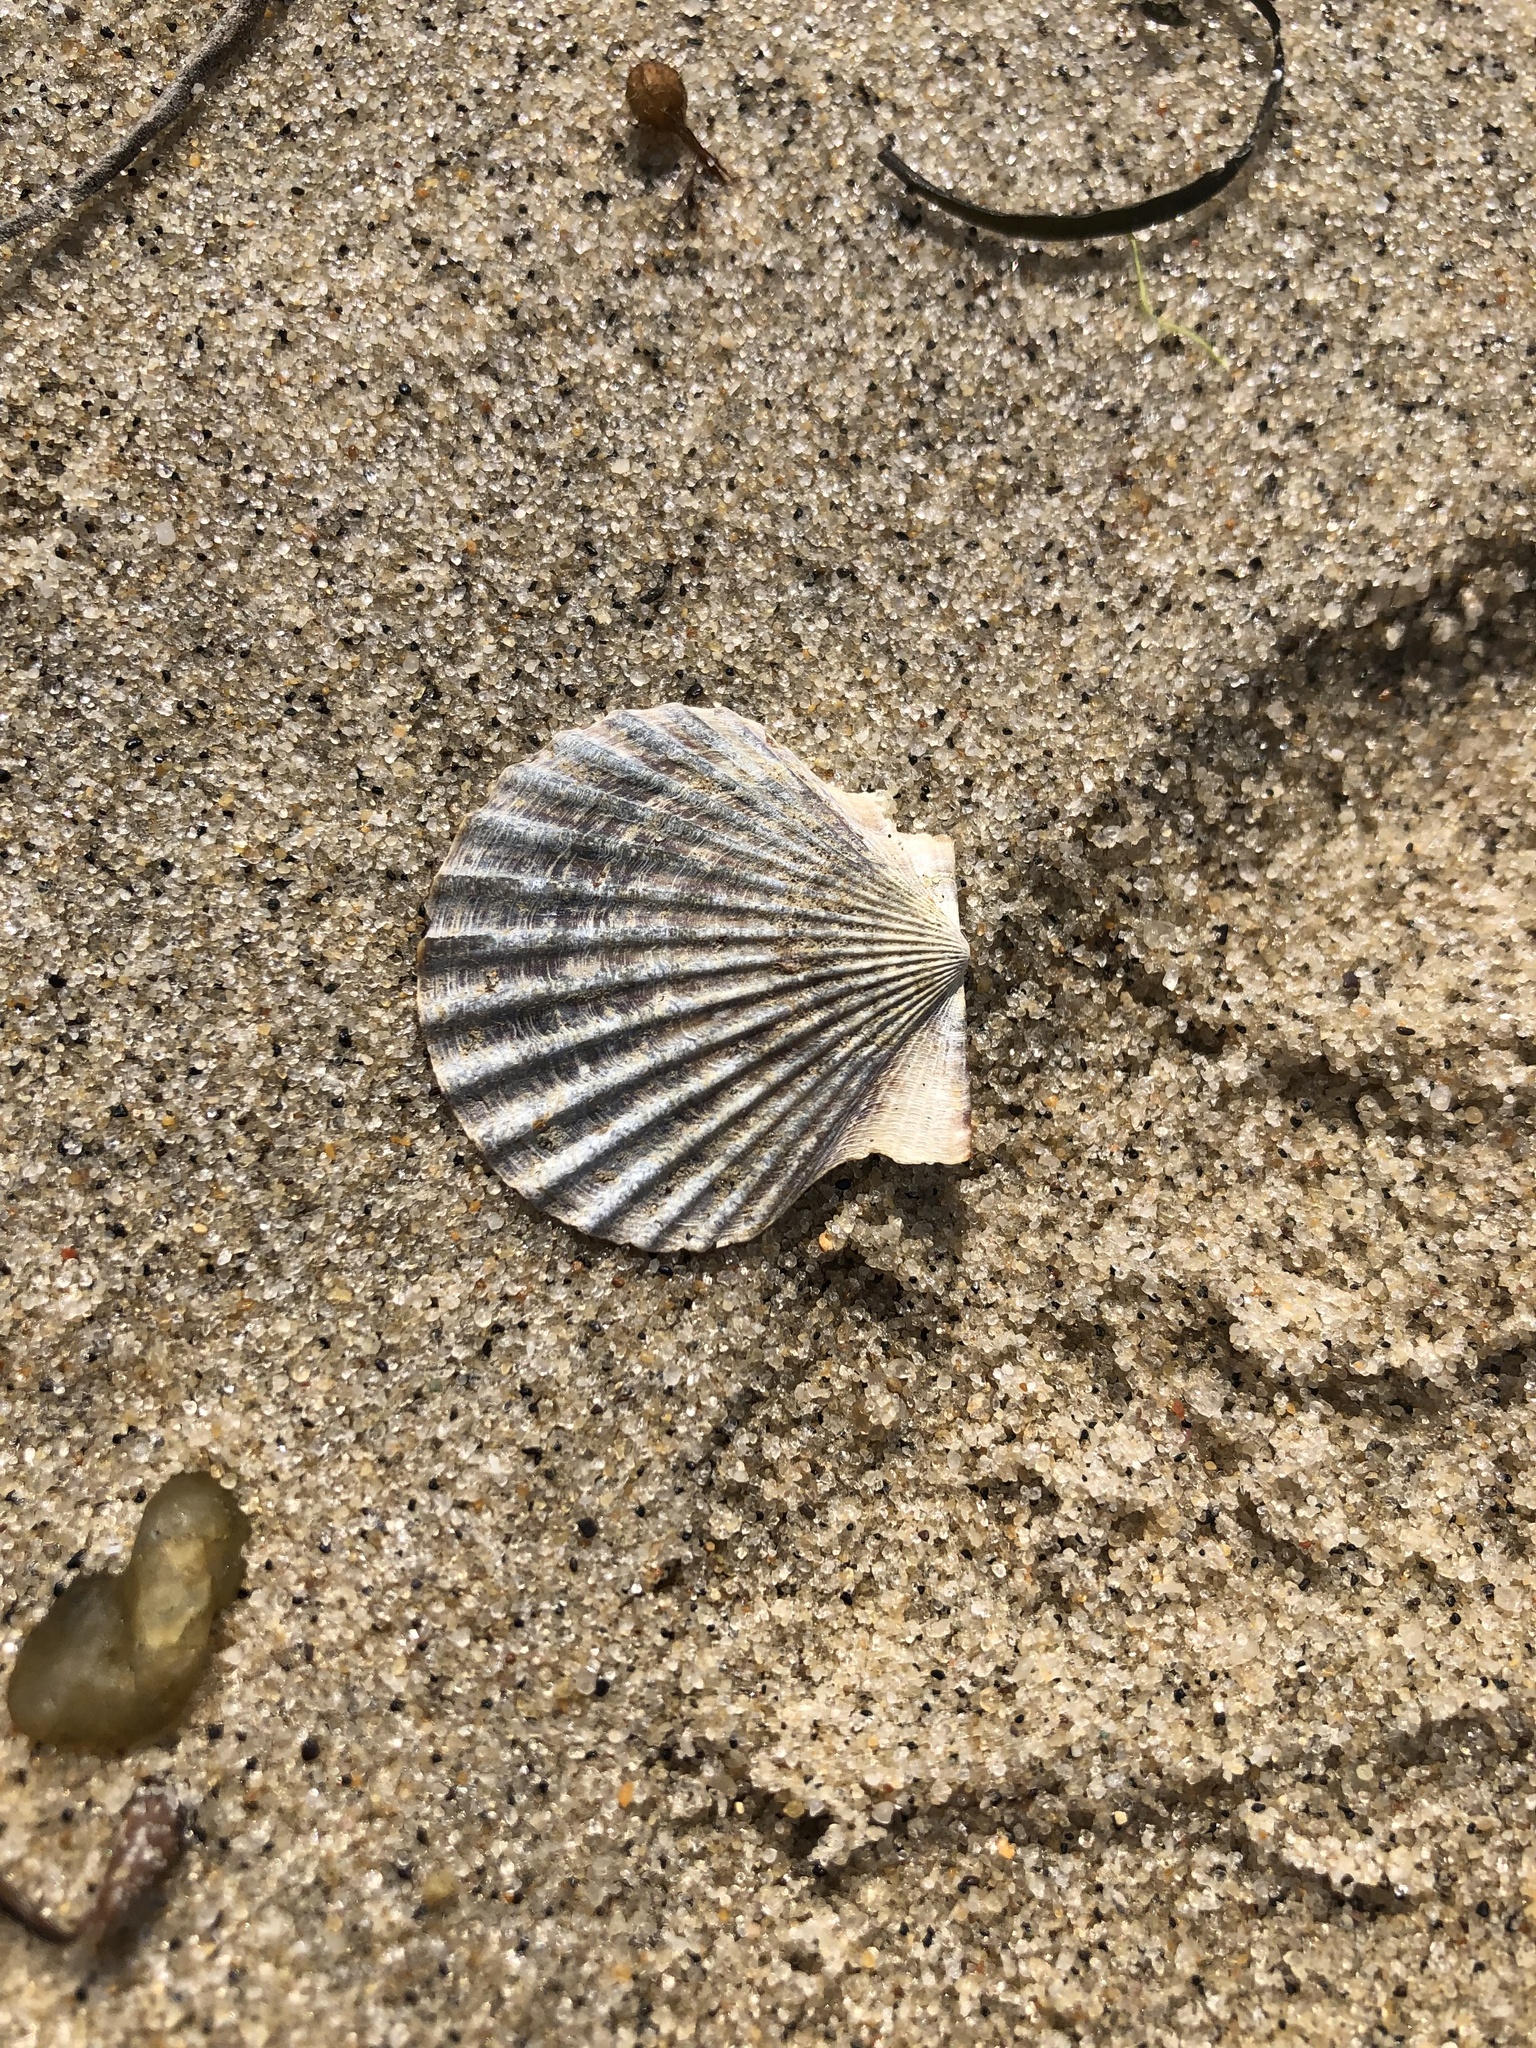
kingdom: Animalia
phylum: Mollusca
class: Bivalvia
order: Pectinida
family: Pectinidae
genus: Argopecten
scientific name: Argopecten irradians
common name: Atlantic bay scallop
